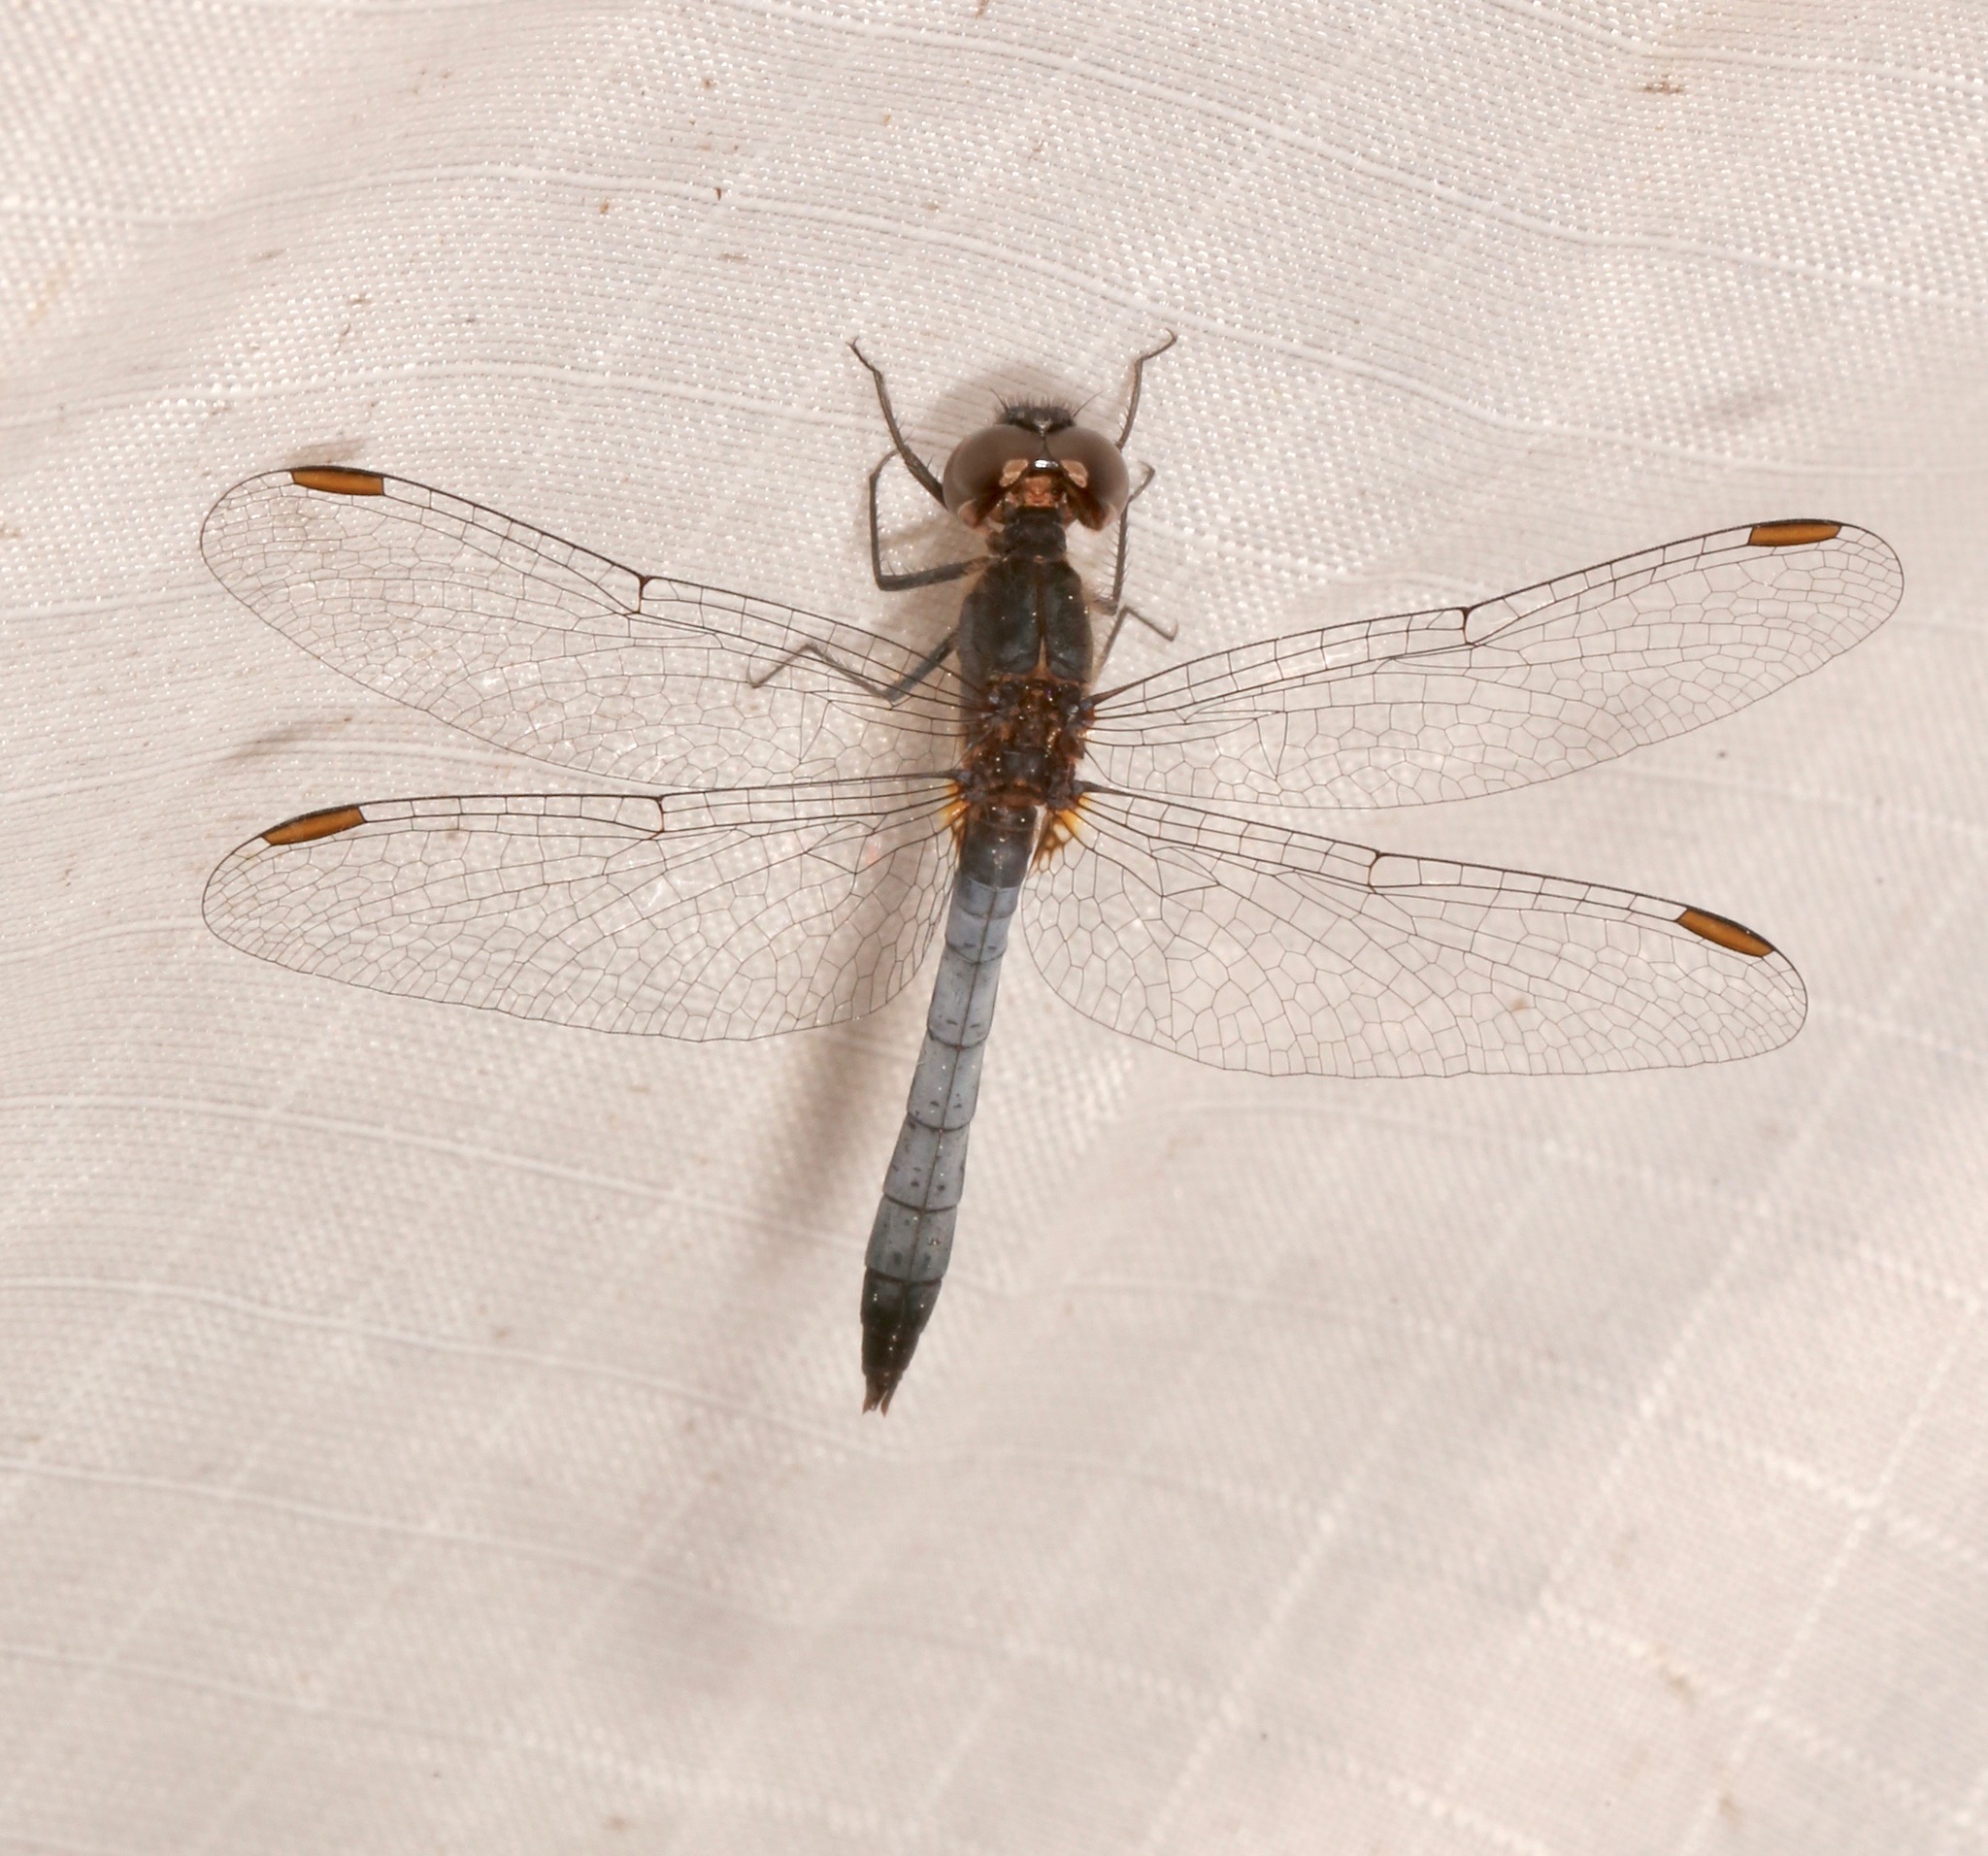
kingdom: Animalia
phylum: Arthropoda
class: Insecta
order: Odonata
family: Libellulidae
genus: Erythrodiplax
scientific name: Erythrodiplax minuscula
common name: Little blue dragonlet
